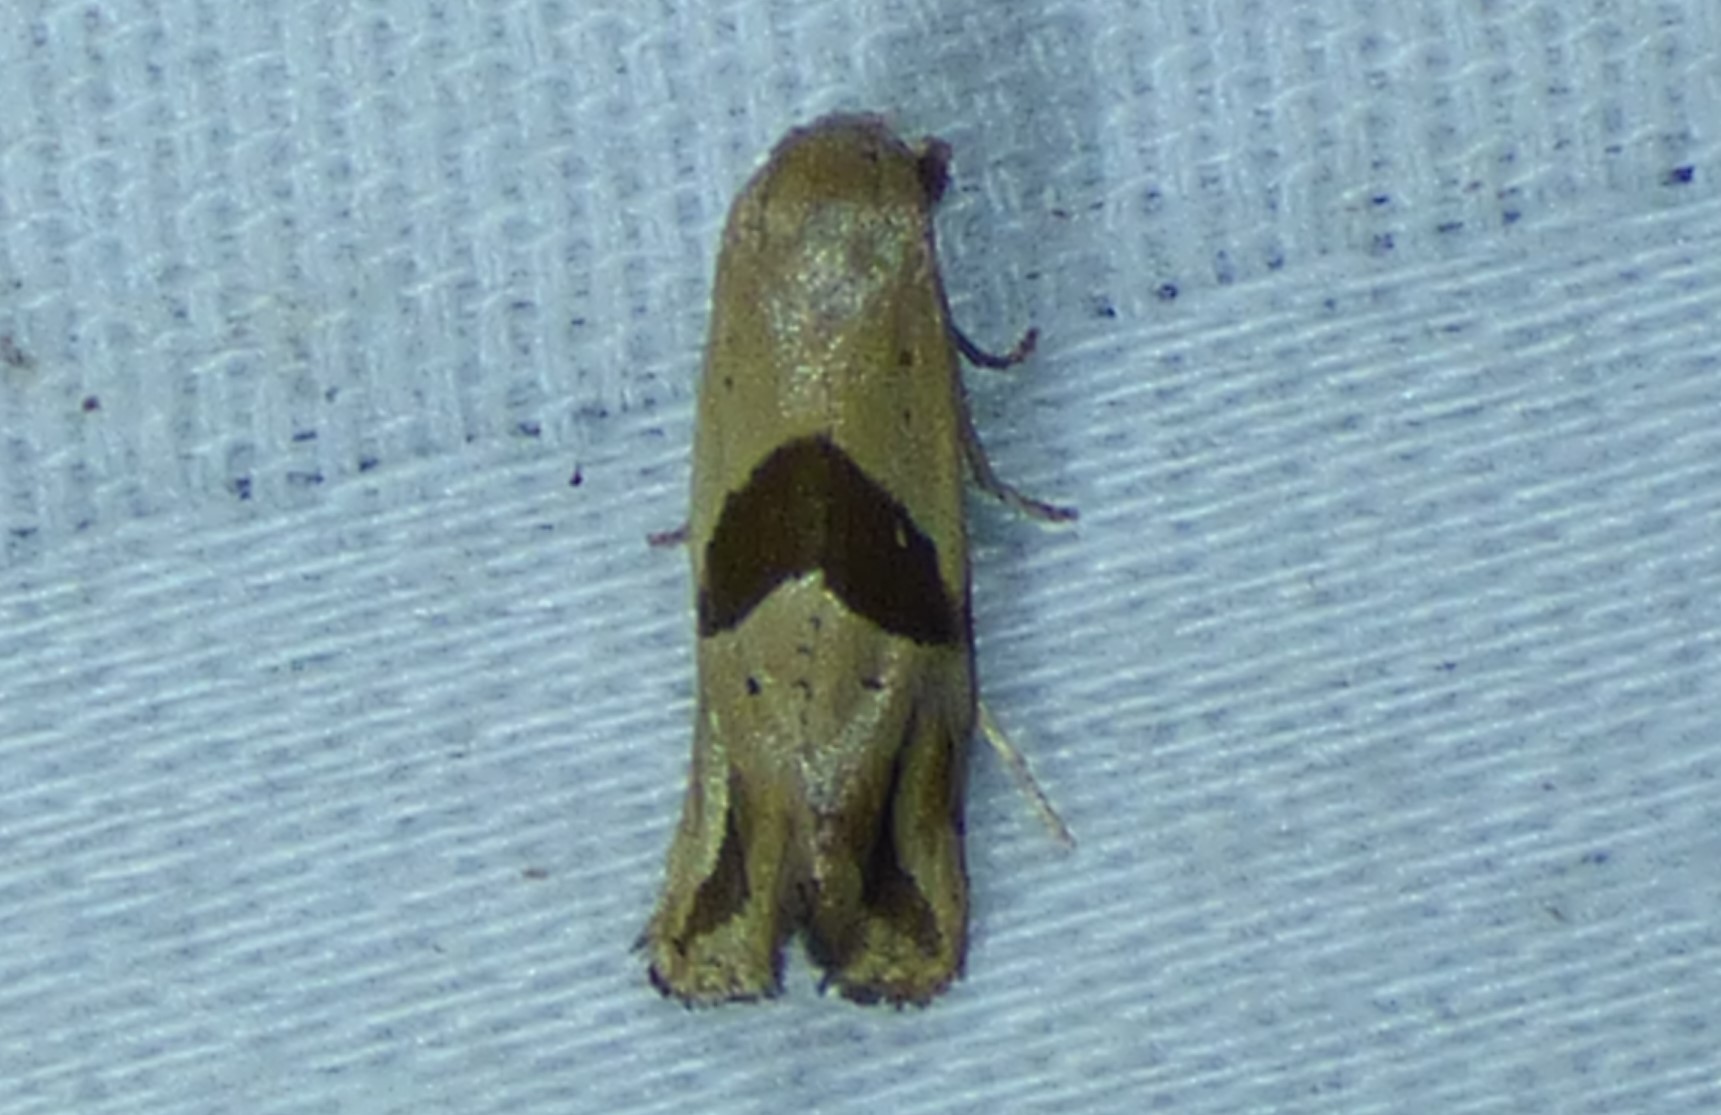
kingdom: Animalia
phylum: Arthropoda
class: Insecta
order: Lepidoptera
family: Tortricidae
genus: Eugnosta
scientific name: Eugnosta sartana
